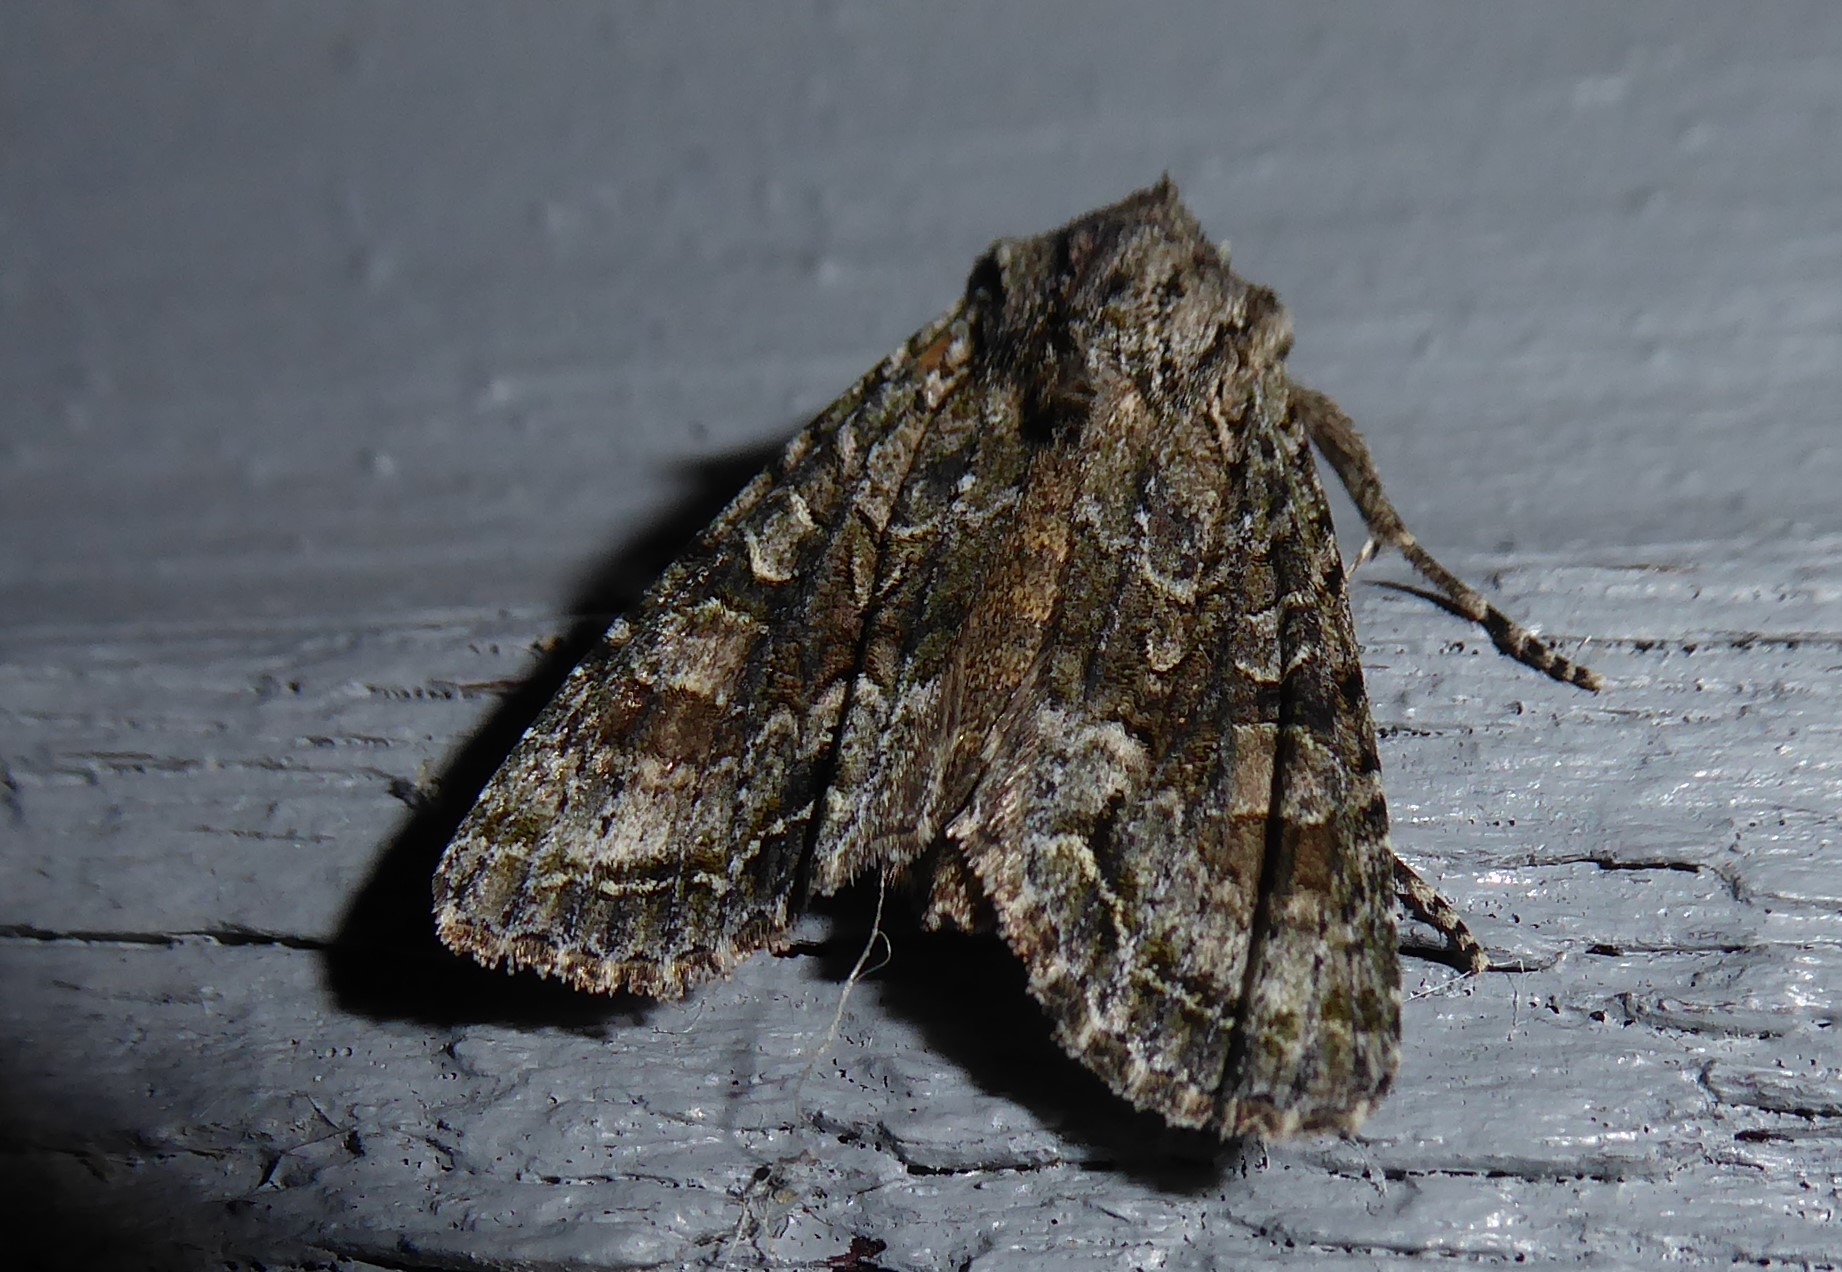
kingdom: Animalia
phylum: Arthropoda
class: Insecta
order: Lepidoptera
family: Noctuidae
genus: Ichneutica
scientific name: Ichneutica mutans
